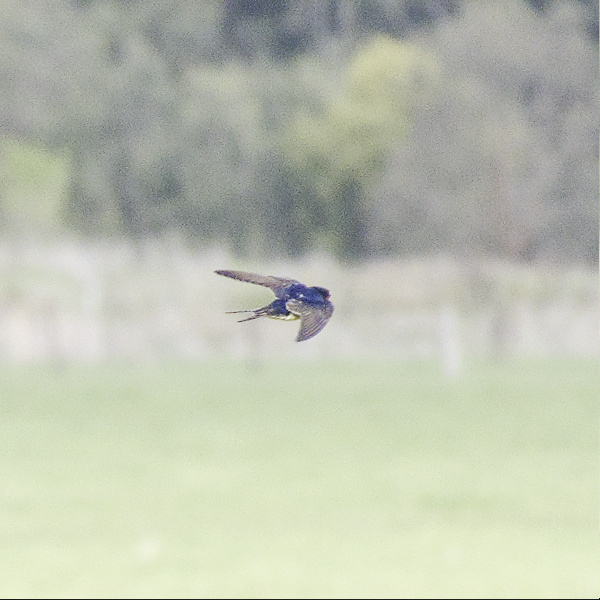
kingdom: Animalia
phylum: Chordata
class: Aves
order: Passeriformes
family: Hirundinidae
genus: Hirundo
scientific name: Hirundo neoxena
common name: Welcome swallow
